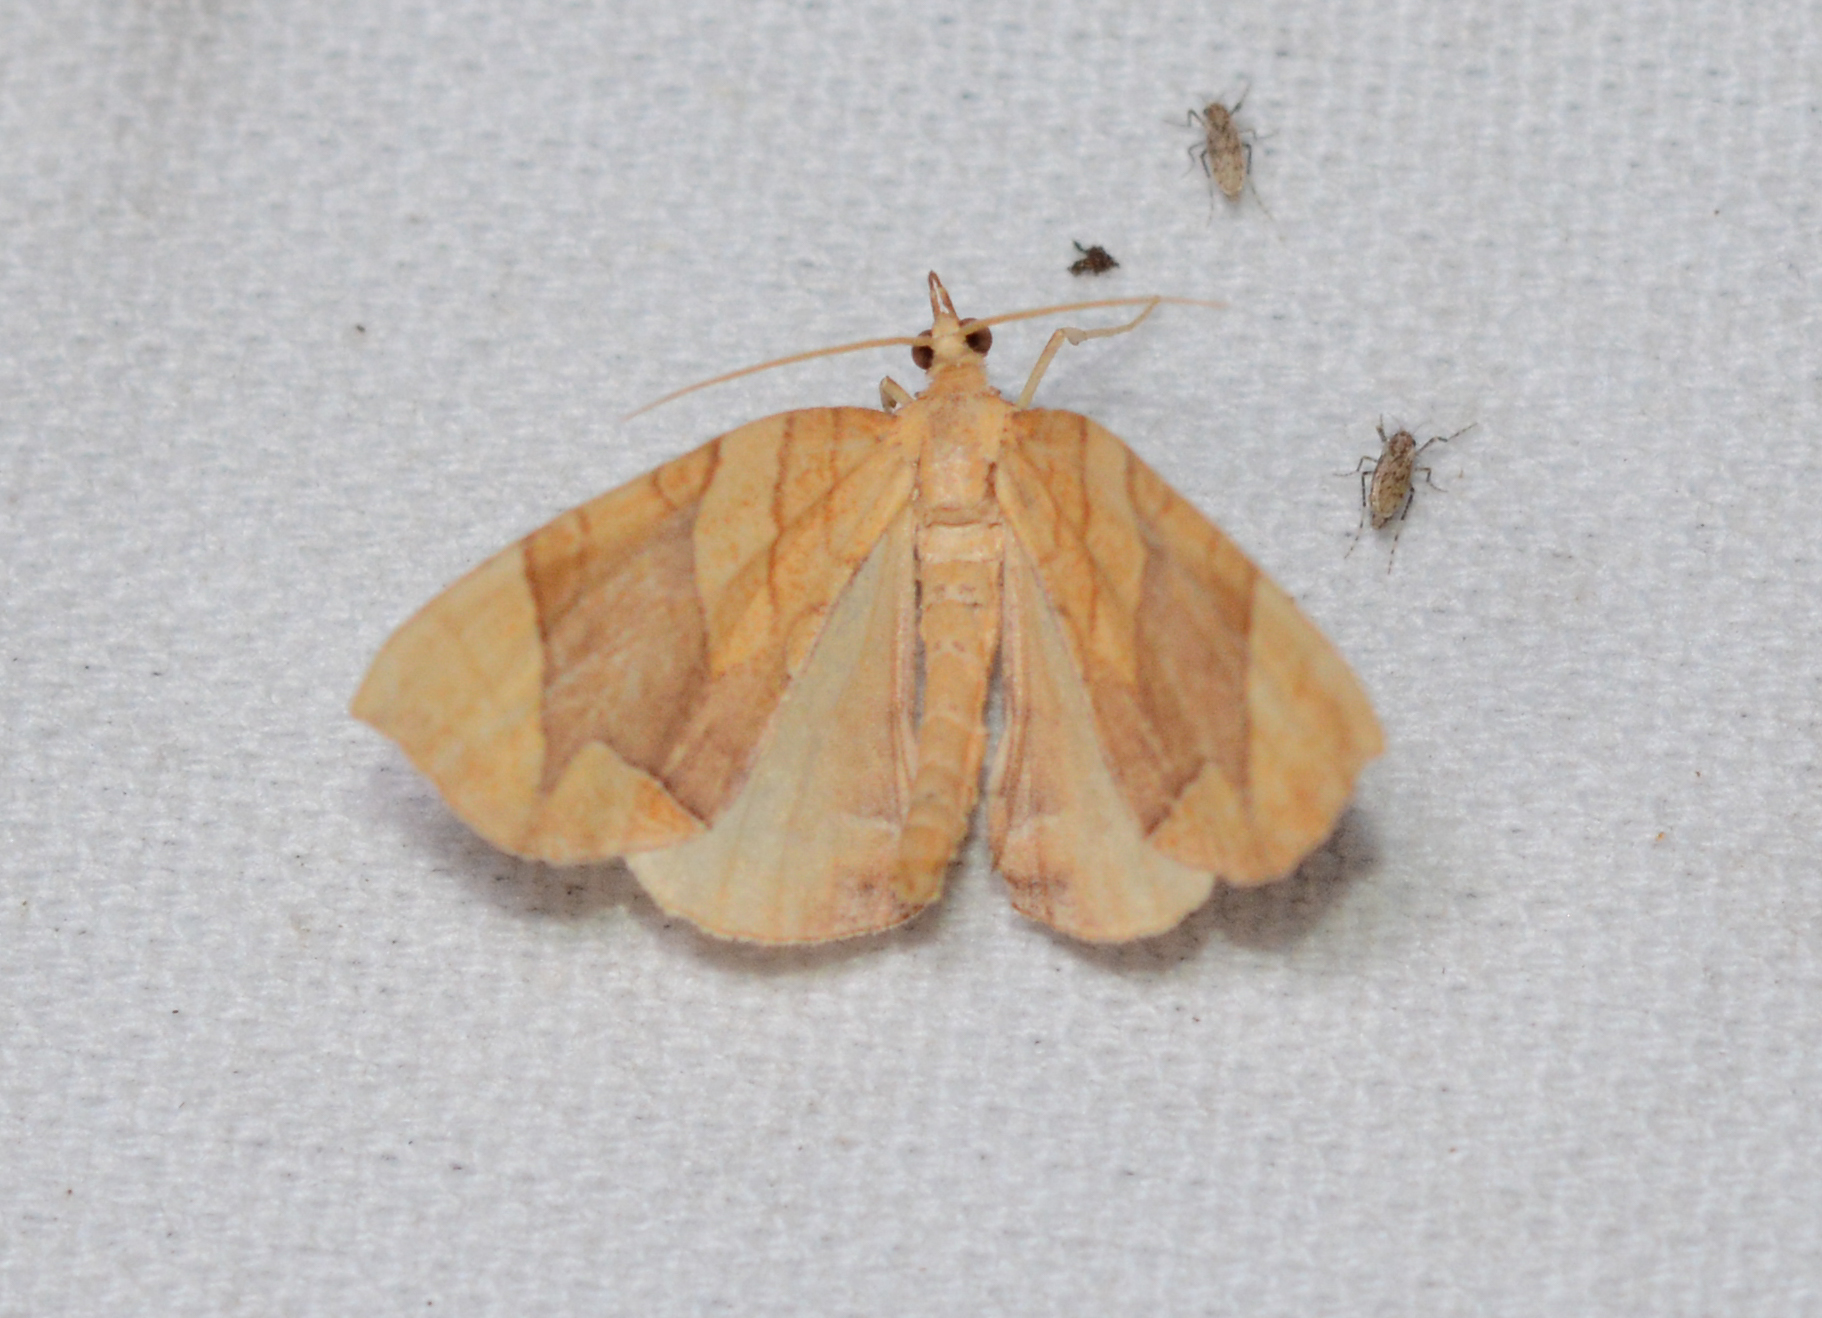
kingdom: Animalia
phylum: Arthropoda
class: Insecta
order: Lepidoptera
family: Geometridae
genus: Eulithis
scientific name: Eulithis
